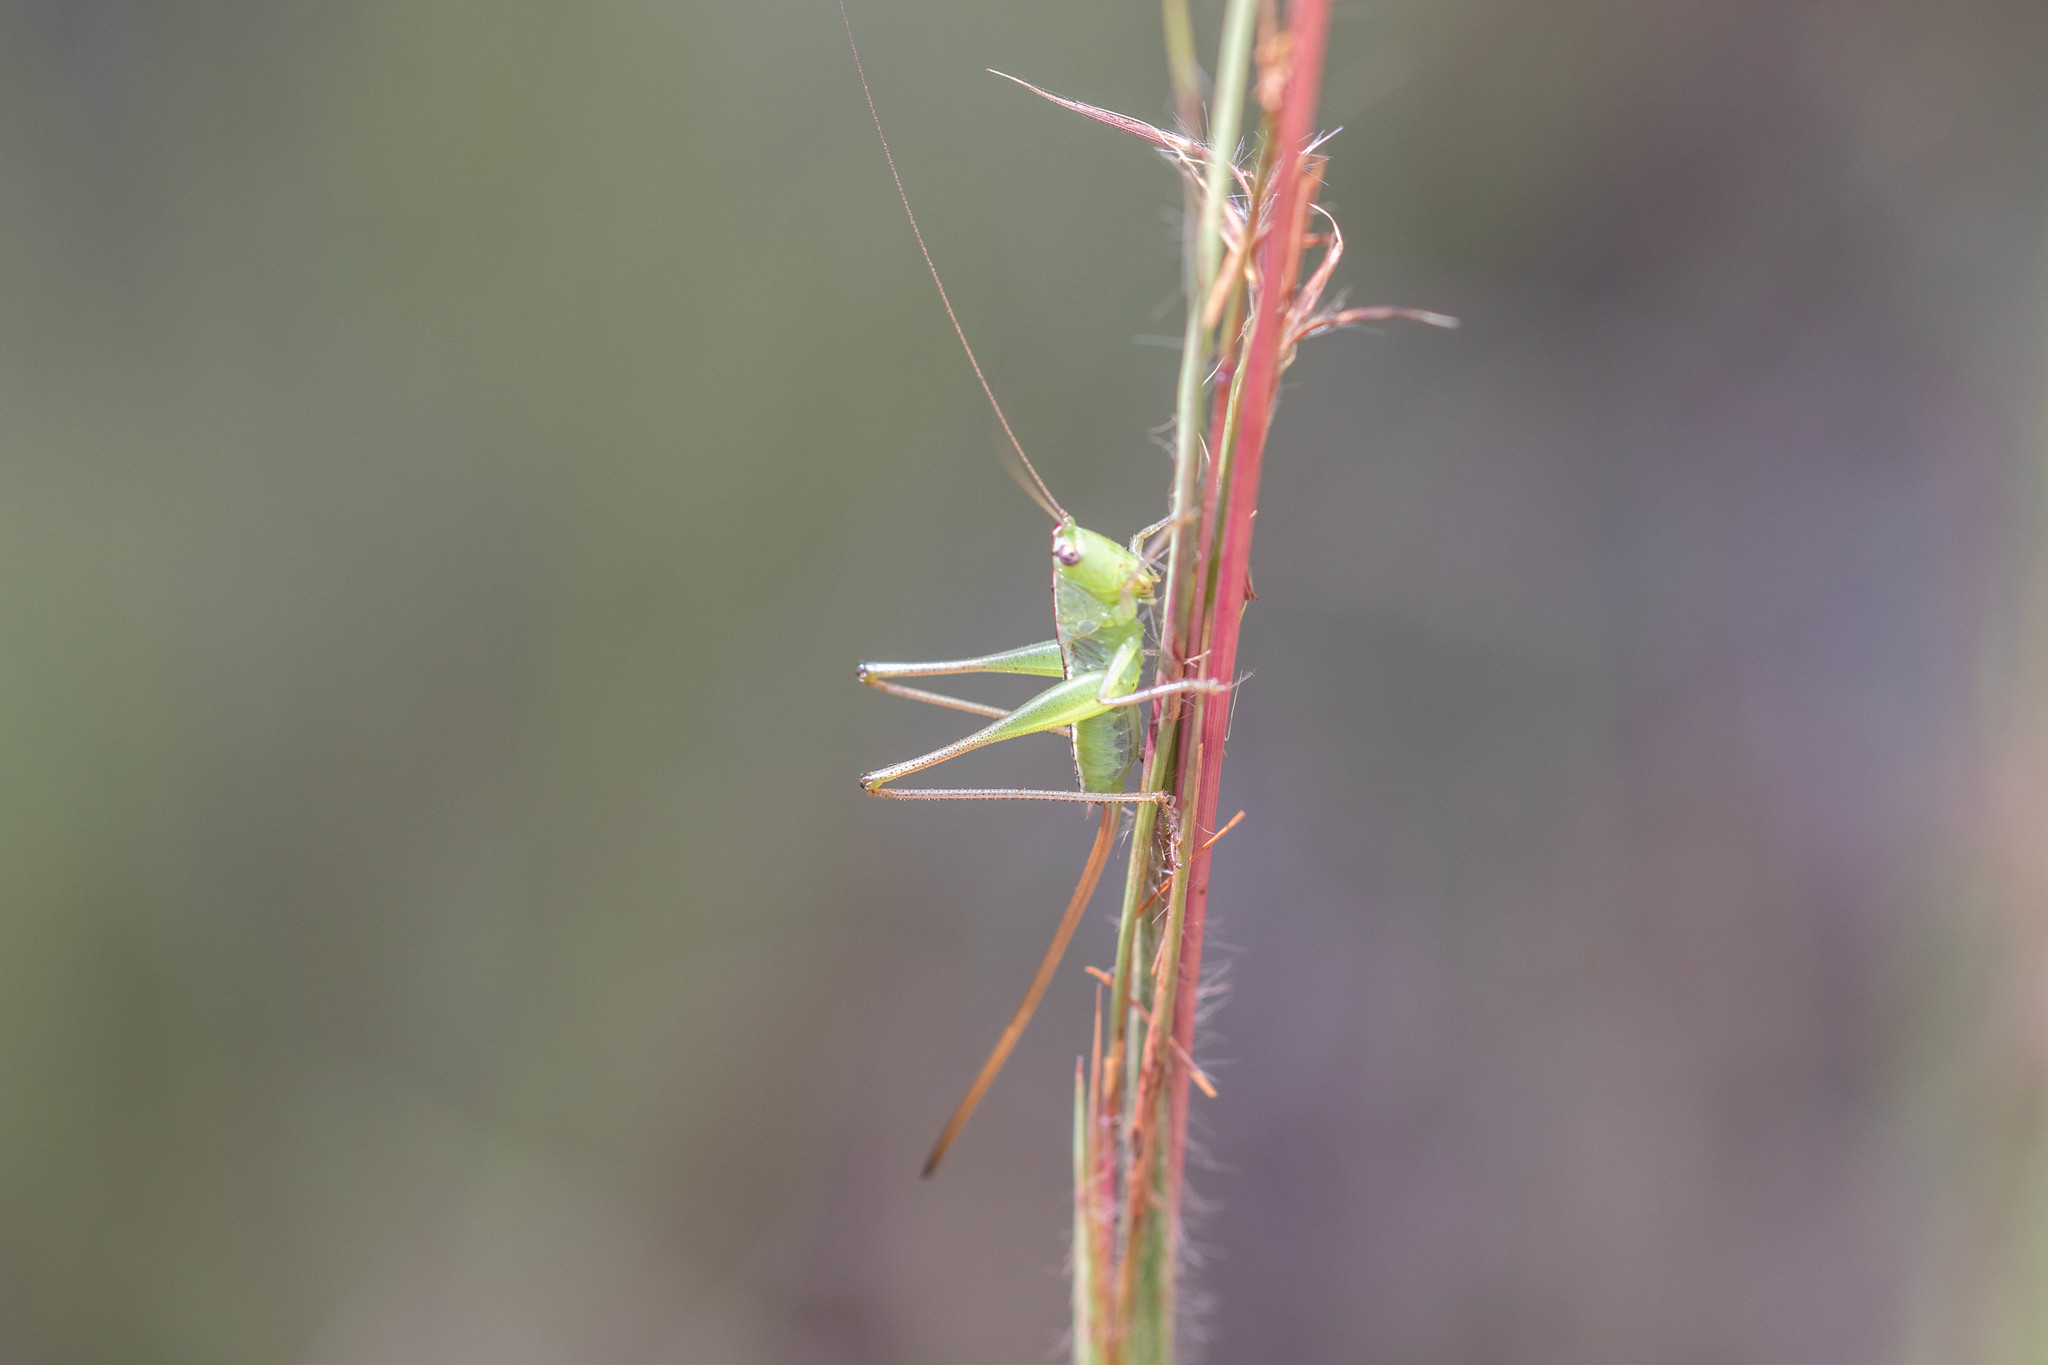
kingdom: Animalia
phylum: Arthropoda
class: Insecta
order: Orthoptera
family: Tettigoniidae
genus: Conocephalus
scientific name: Conocephalus strictus
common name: Straight-lanced katydid
